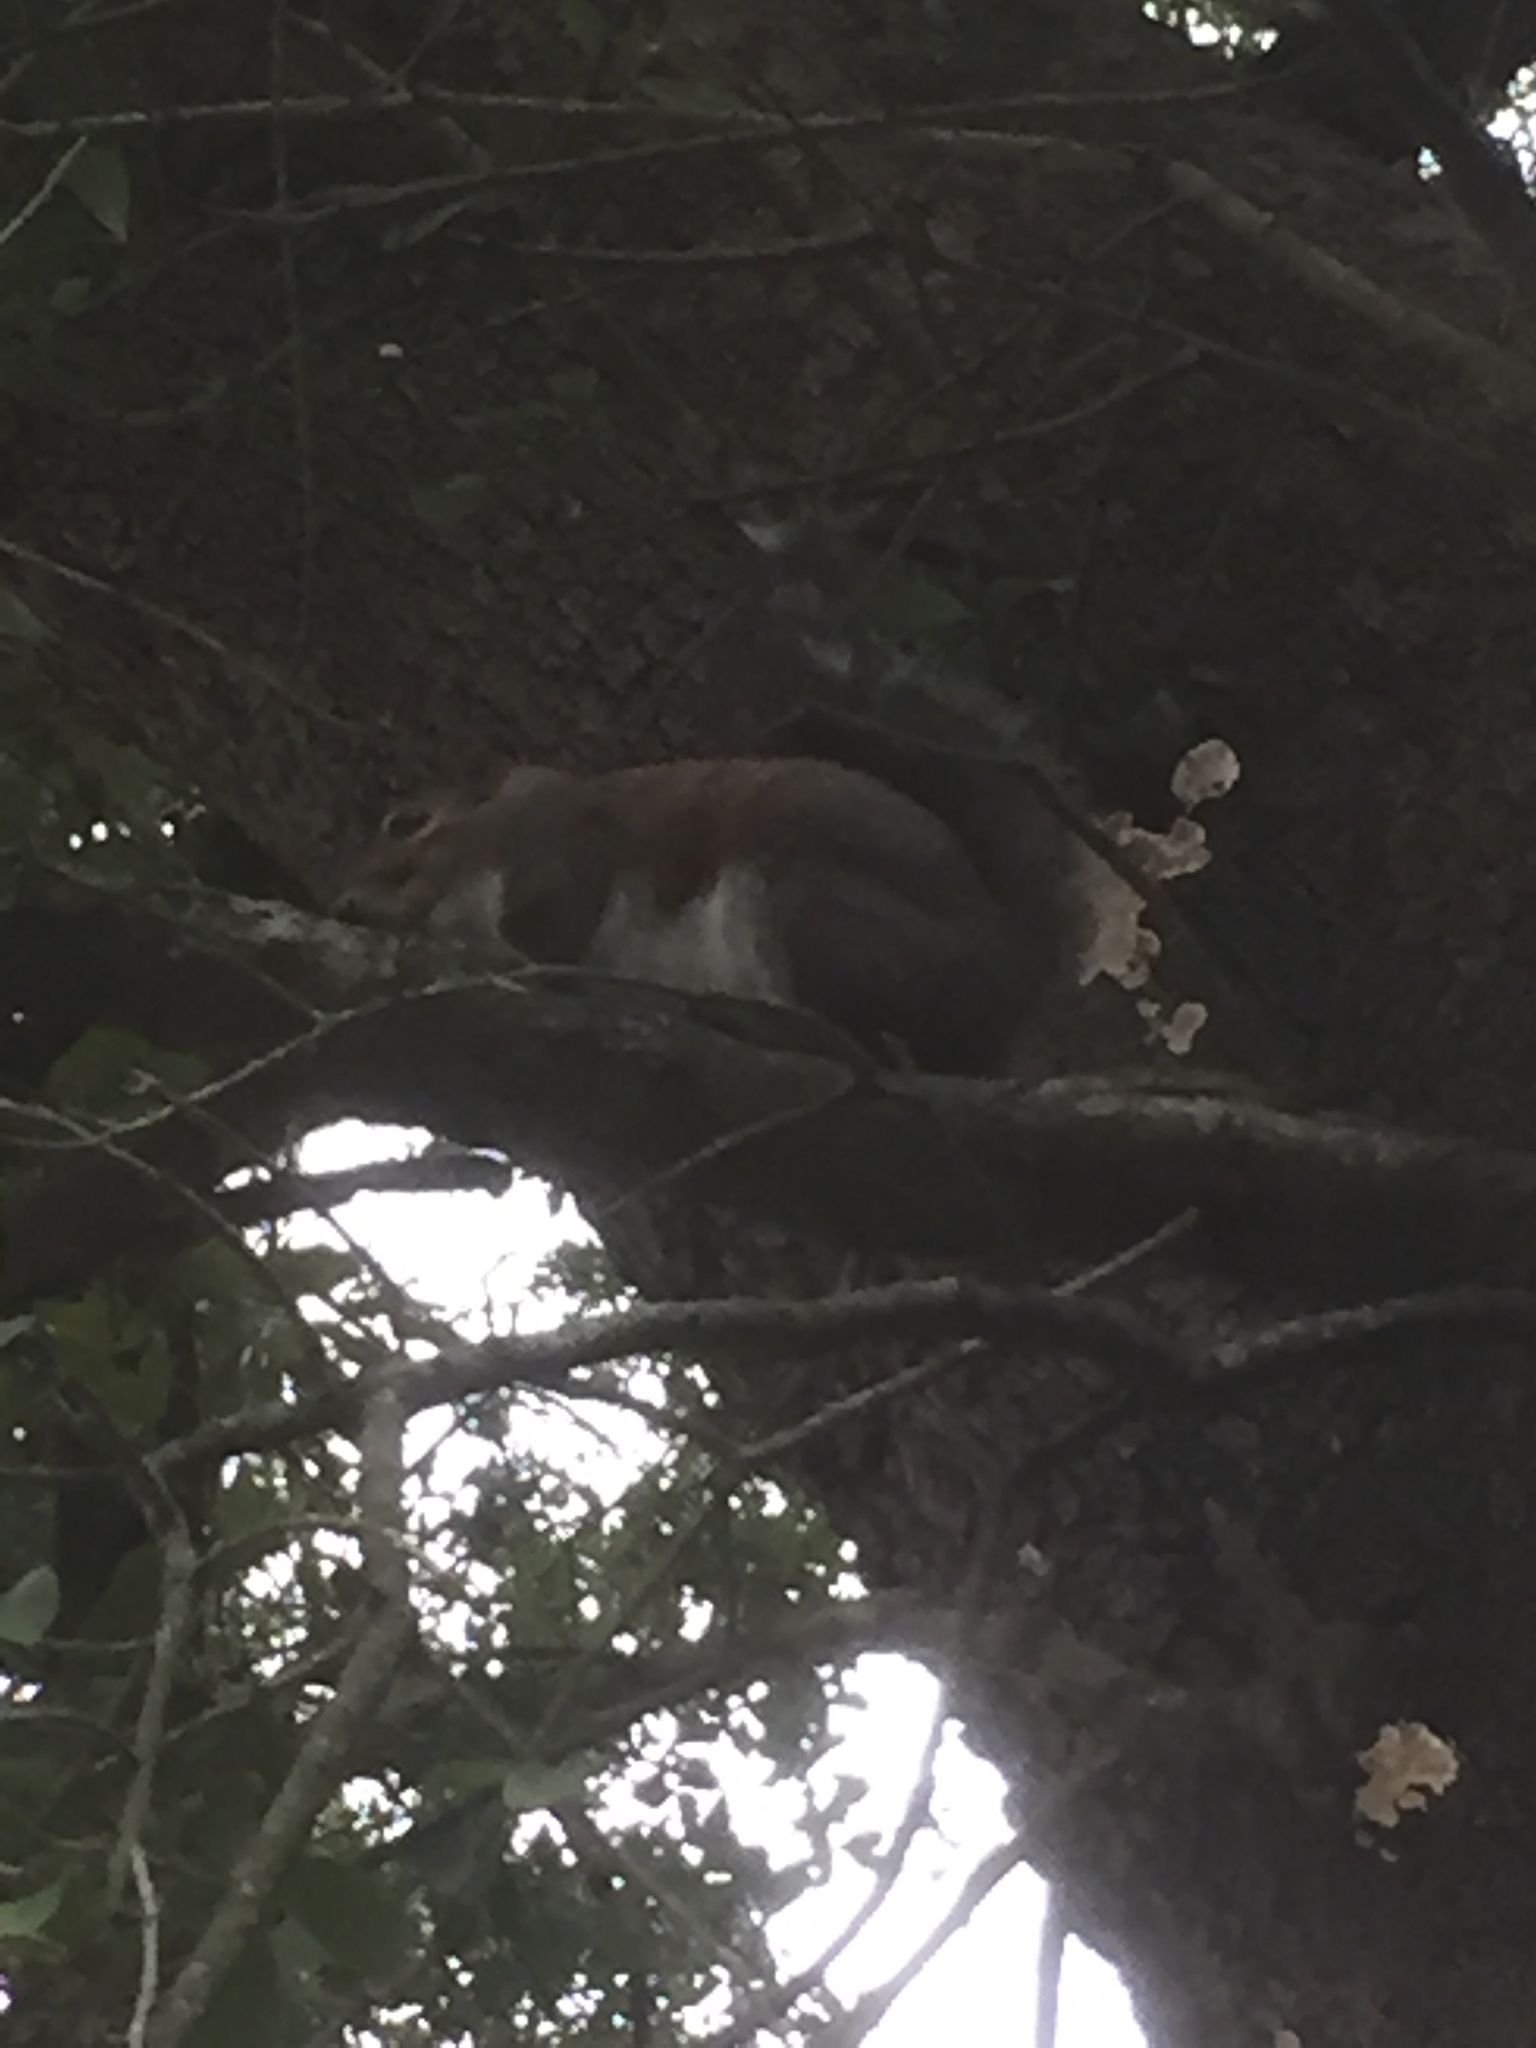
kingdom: Animalia
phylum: Chordata
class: Mammalia
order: Rodentia
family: Sciuridae
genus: Sciurus
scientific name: Sciurus carolinensis
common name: Eastern gray squirrel
